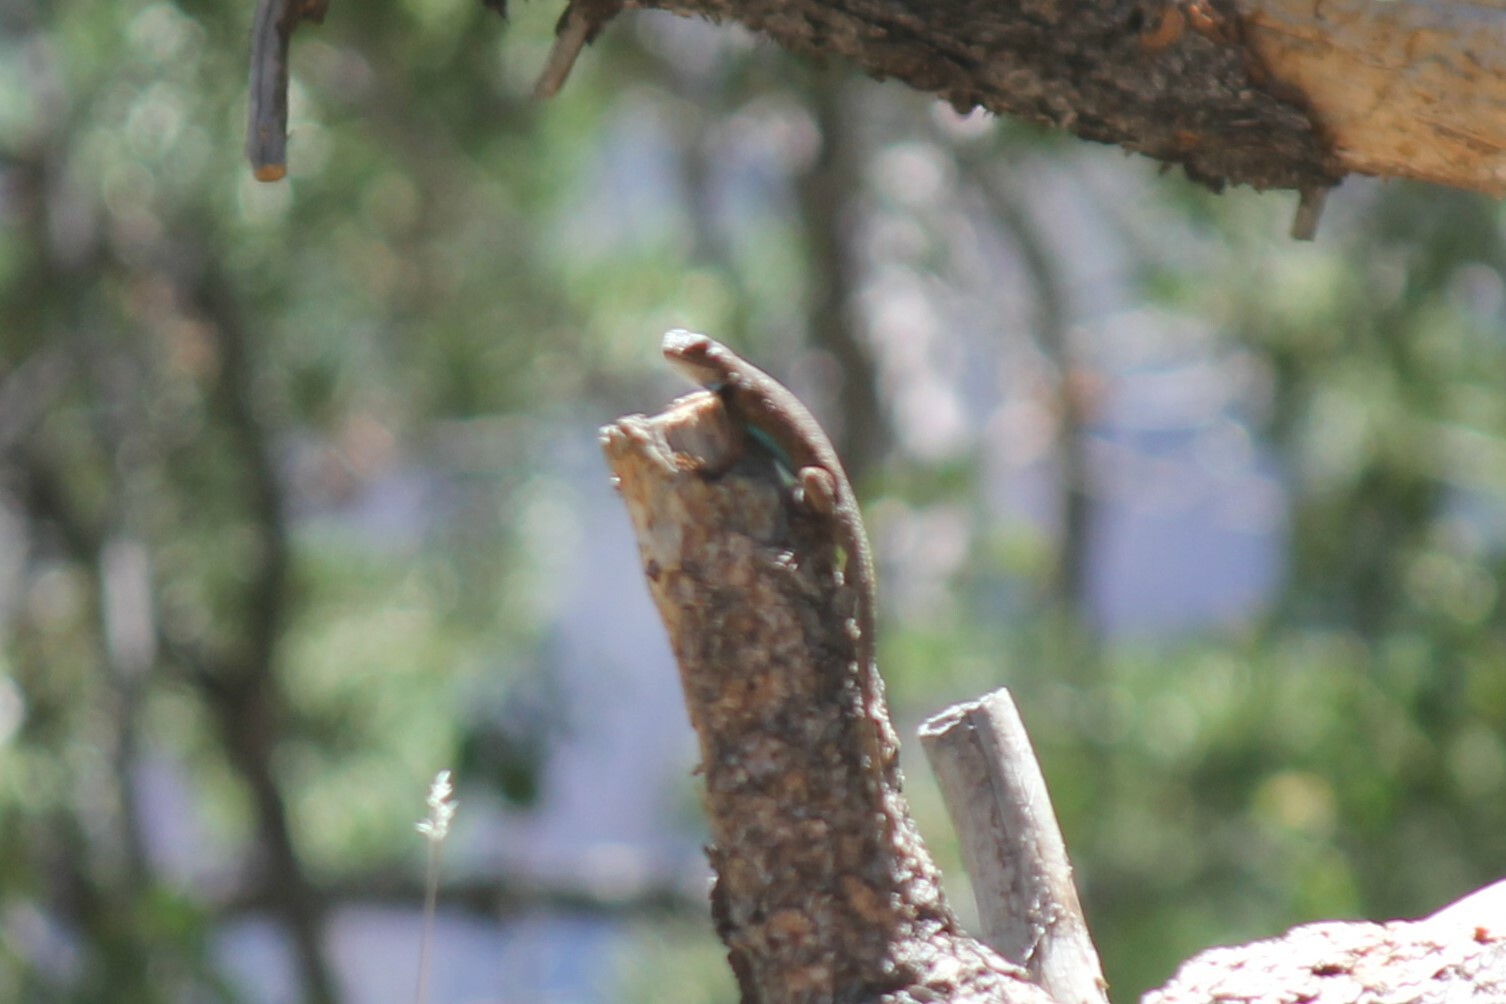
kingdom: Animalia
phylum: Chordata
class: Squamata
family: Phrynosomatidae
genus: Sceloporus
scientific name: Sceloporus tristichus
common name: Plateau fence lizard
